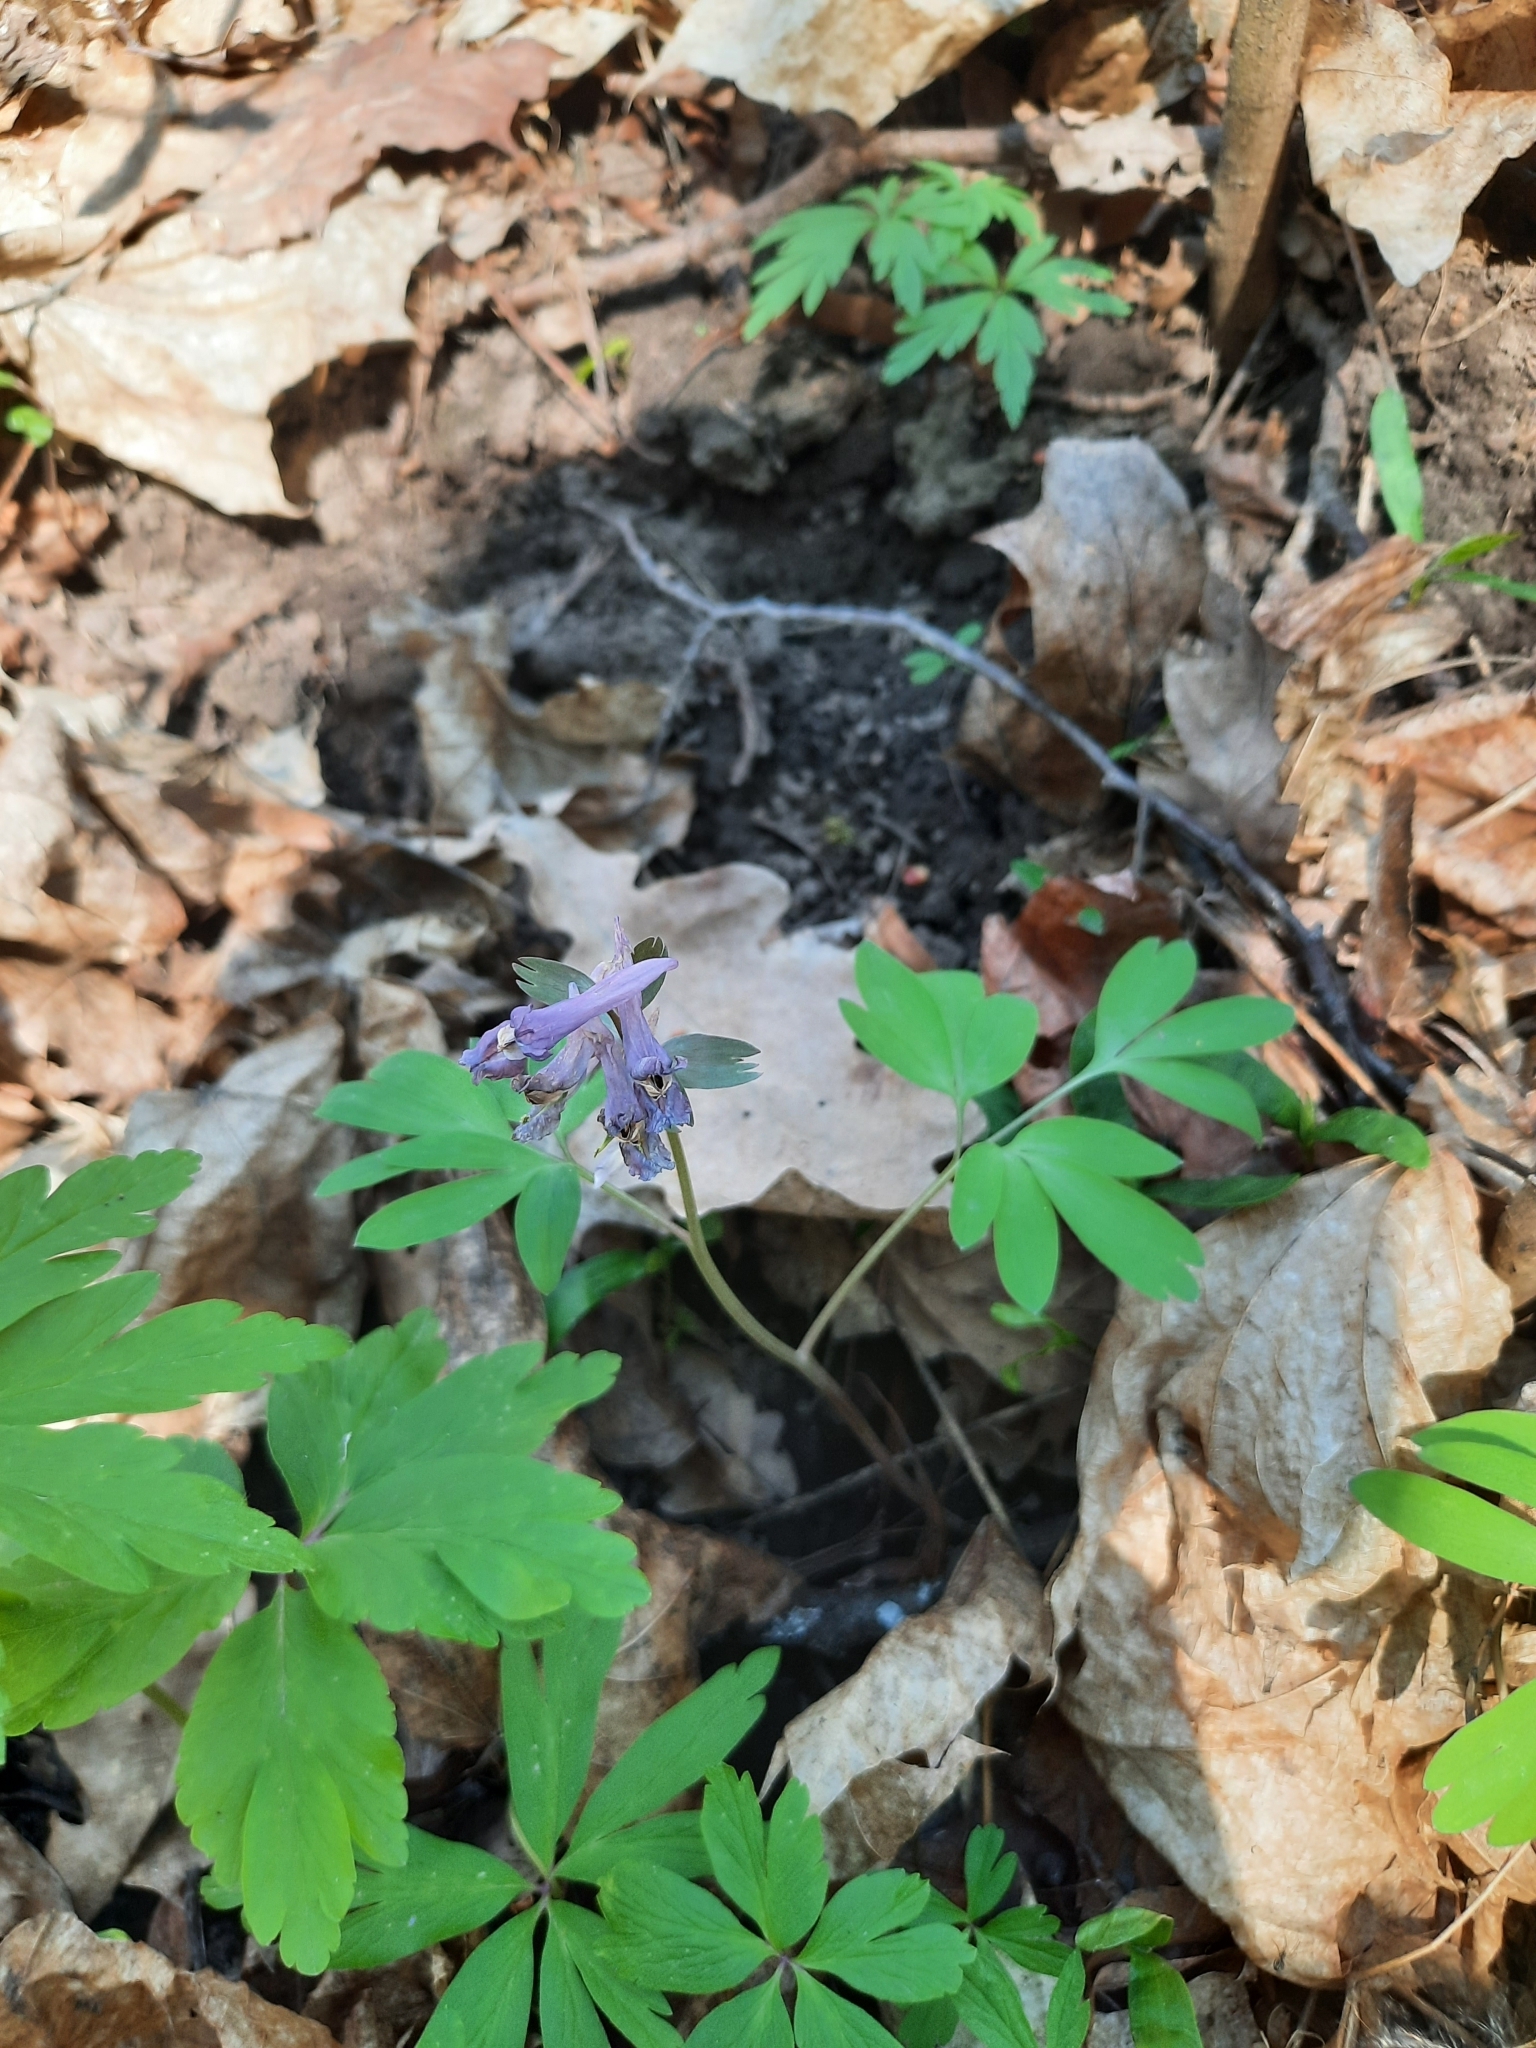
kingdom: Plantae
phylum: Tracheophyta
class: Magnoliopsida
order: Ranunculales
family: Papaveraceae
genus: Corydalis
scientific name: Corydalis solida
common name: Bird-in-a-bush
